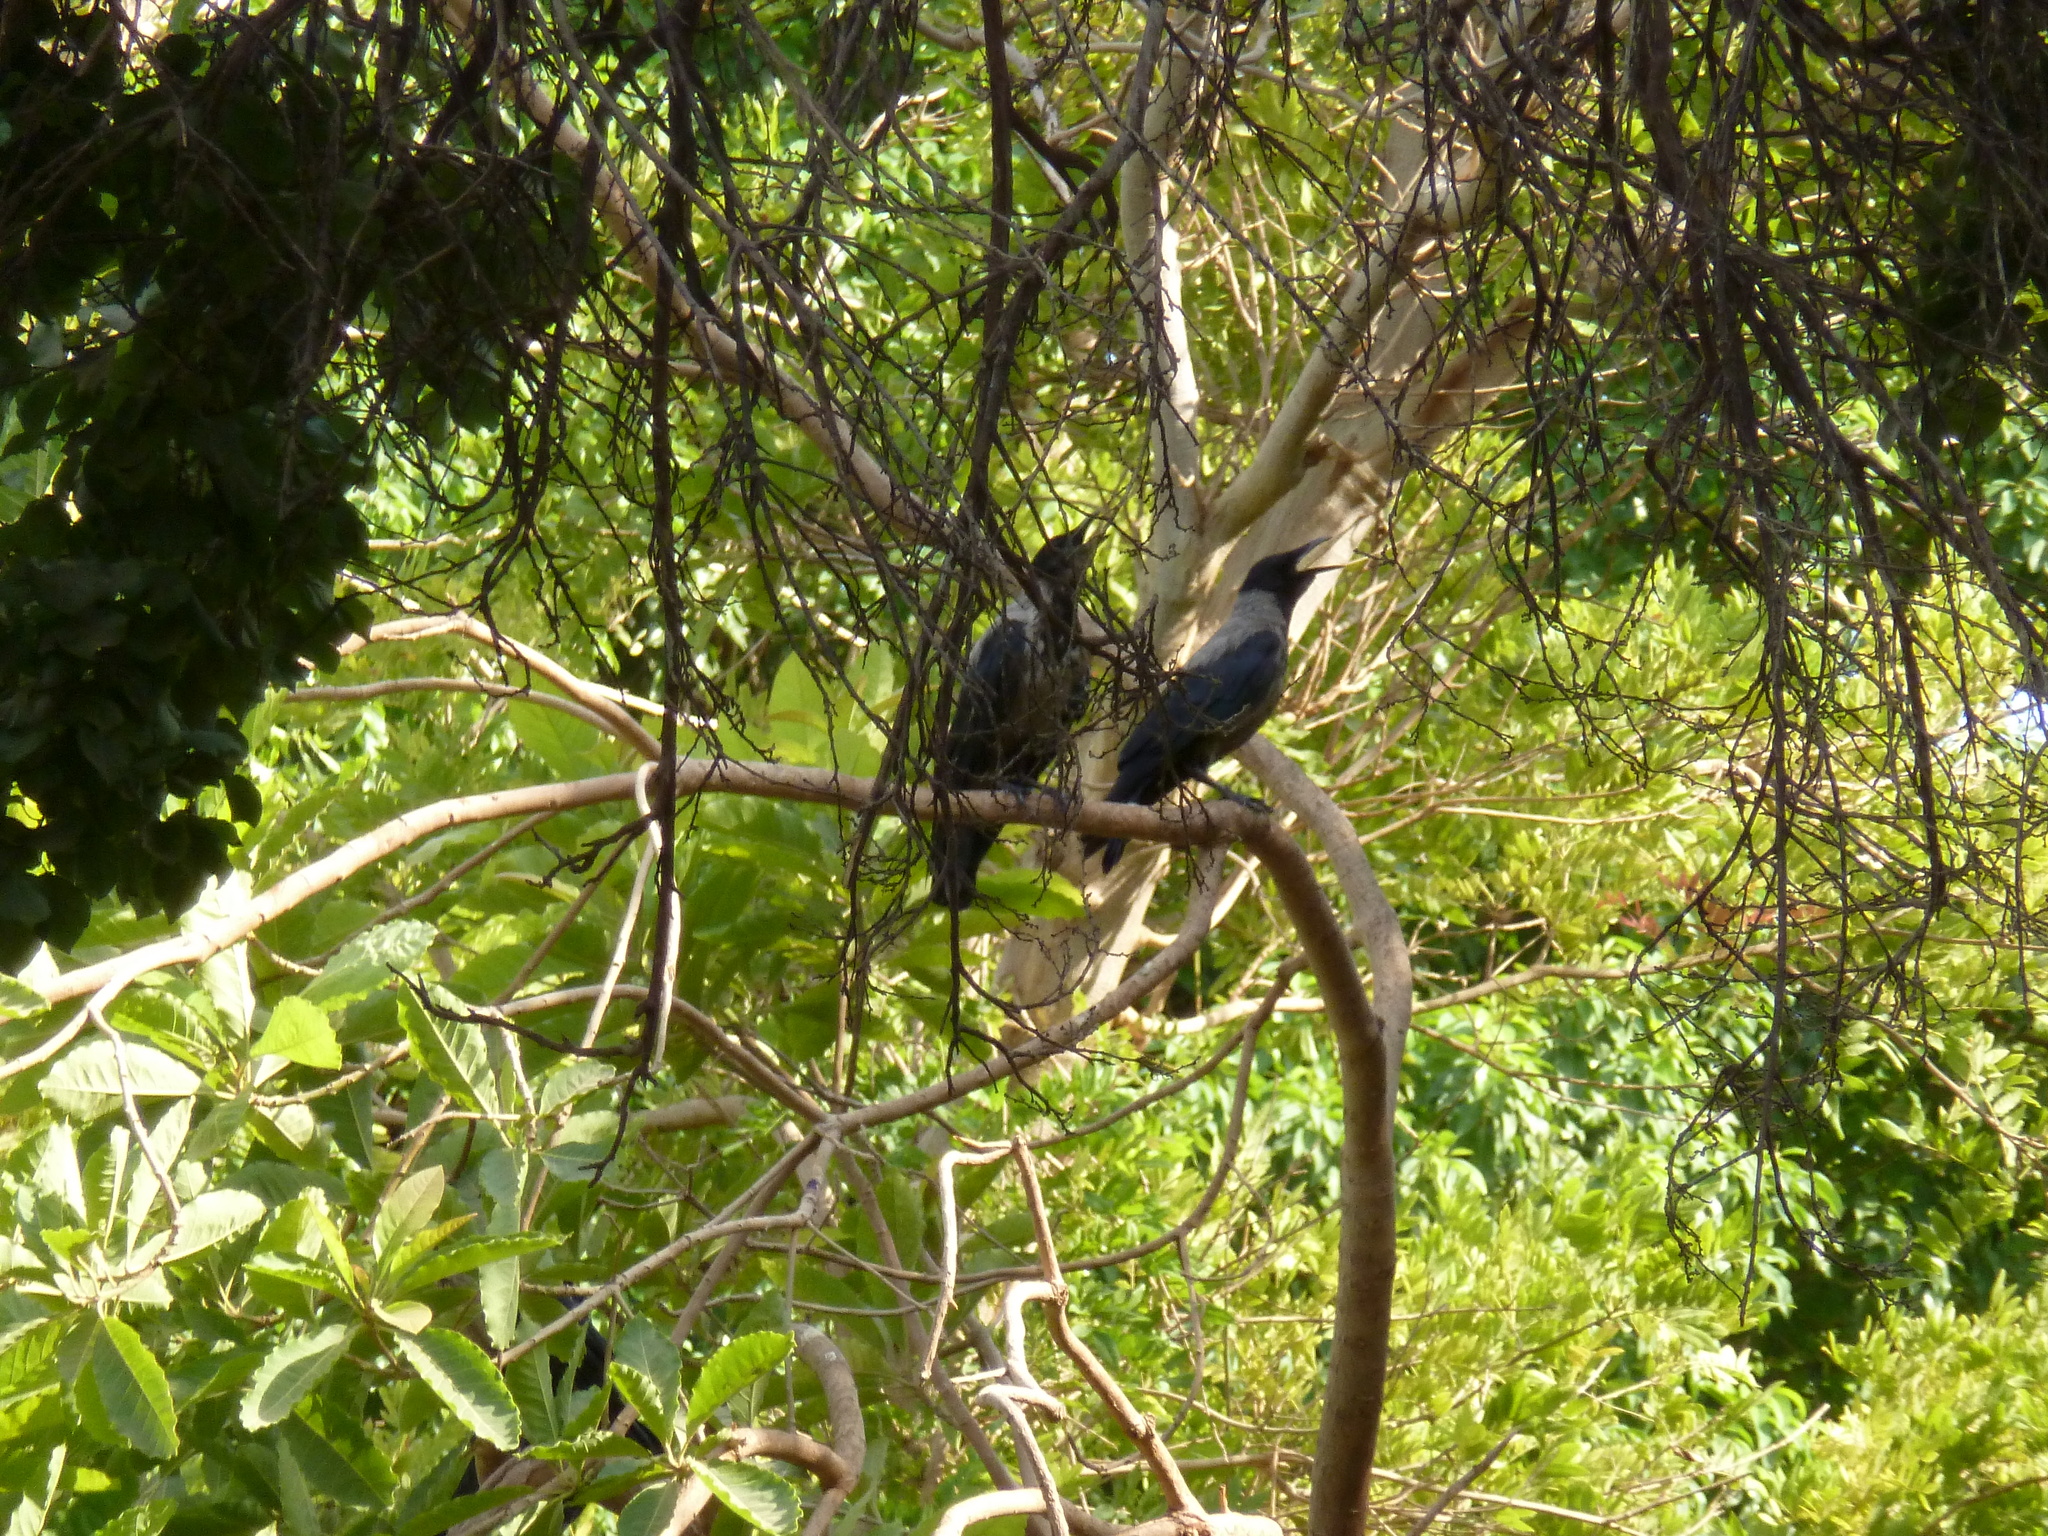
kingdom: Animalia
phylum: Chordata
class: Aves
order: Passeriformes
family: Corvidae
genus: Corvus
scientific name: Corvus cornix
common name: Hooded crow
